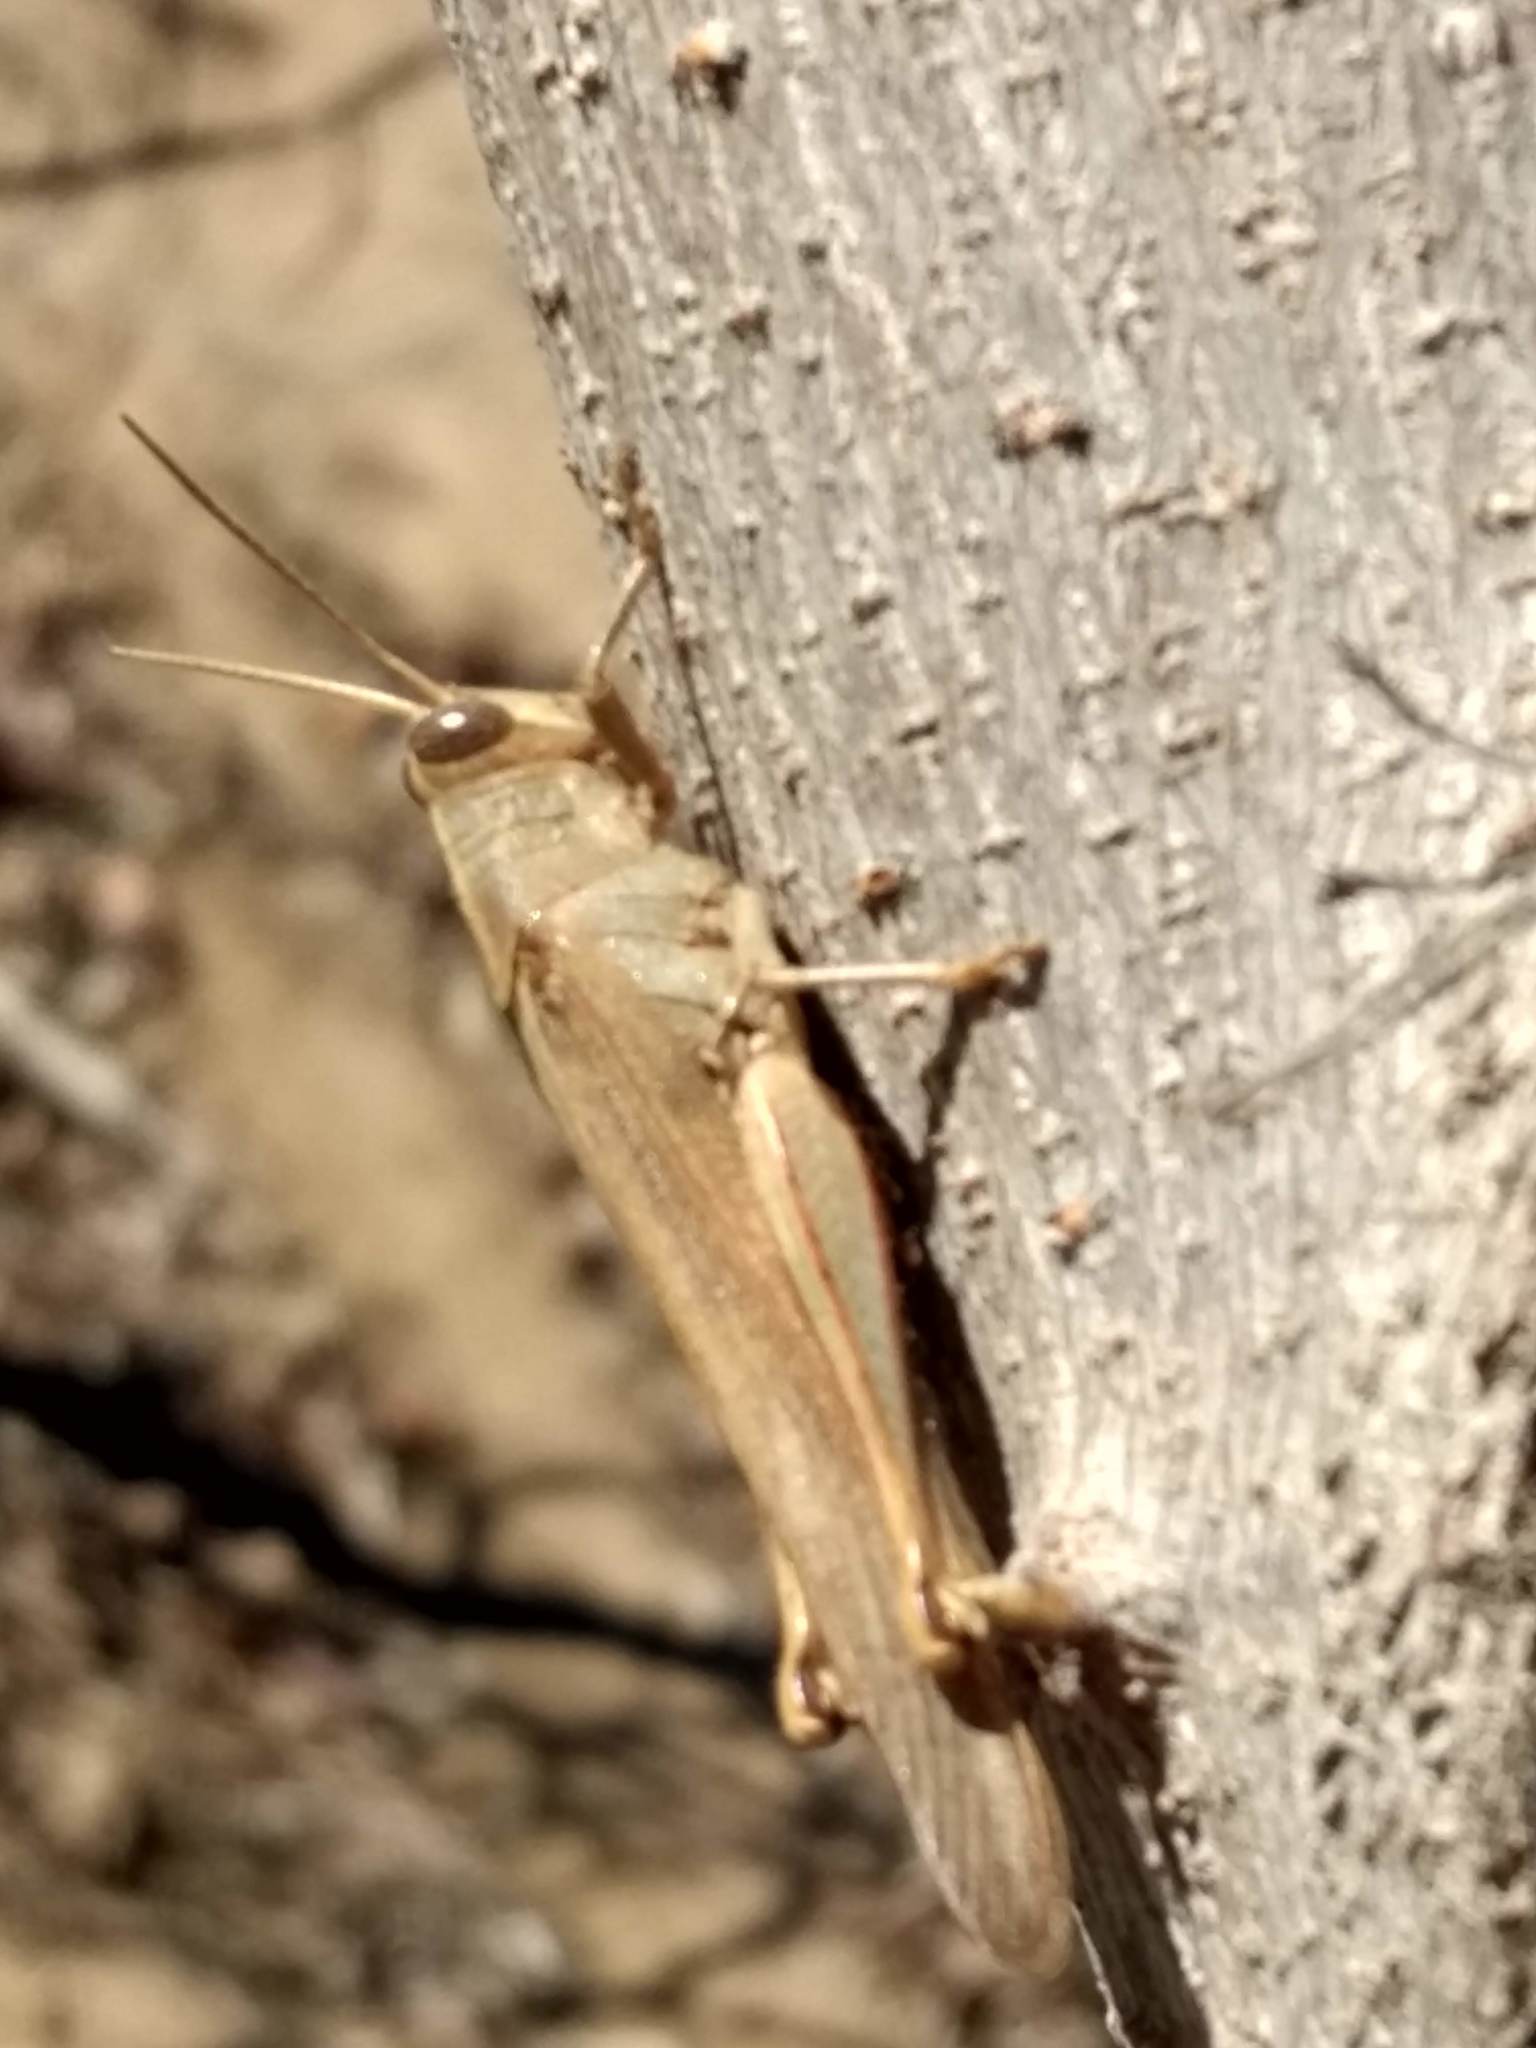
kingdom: Animalia
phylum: Arthropoda
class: Insecta
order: Orthoptera
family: Acrididae
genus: Schistocerca
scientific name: Schistocerca nitens
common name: Vagrant grasshopper
